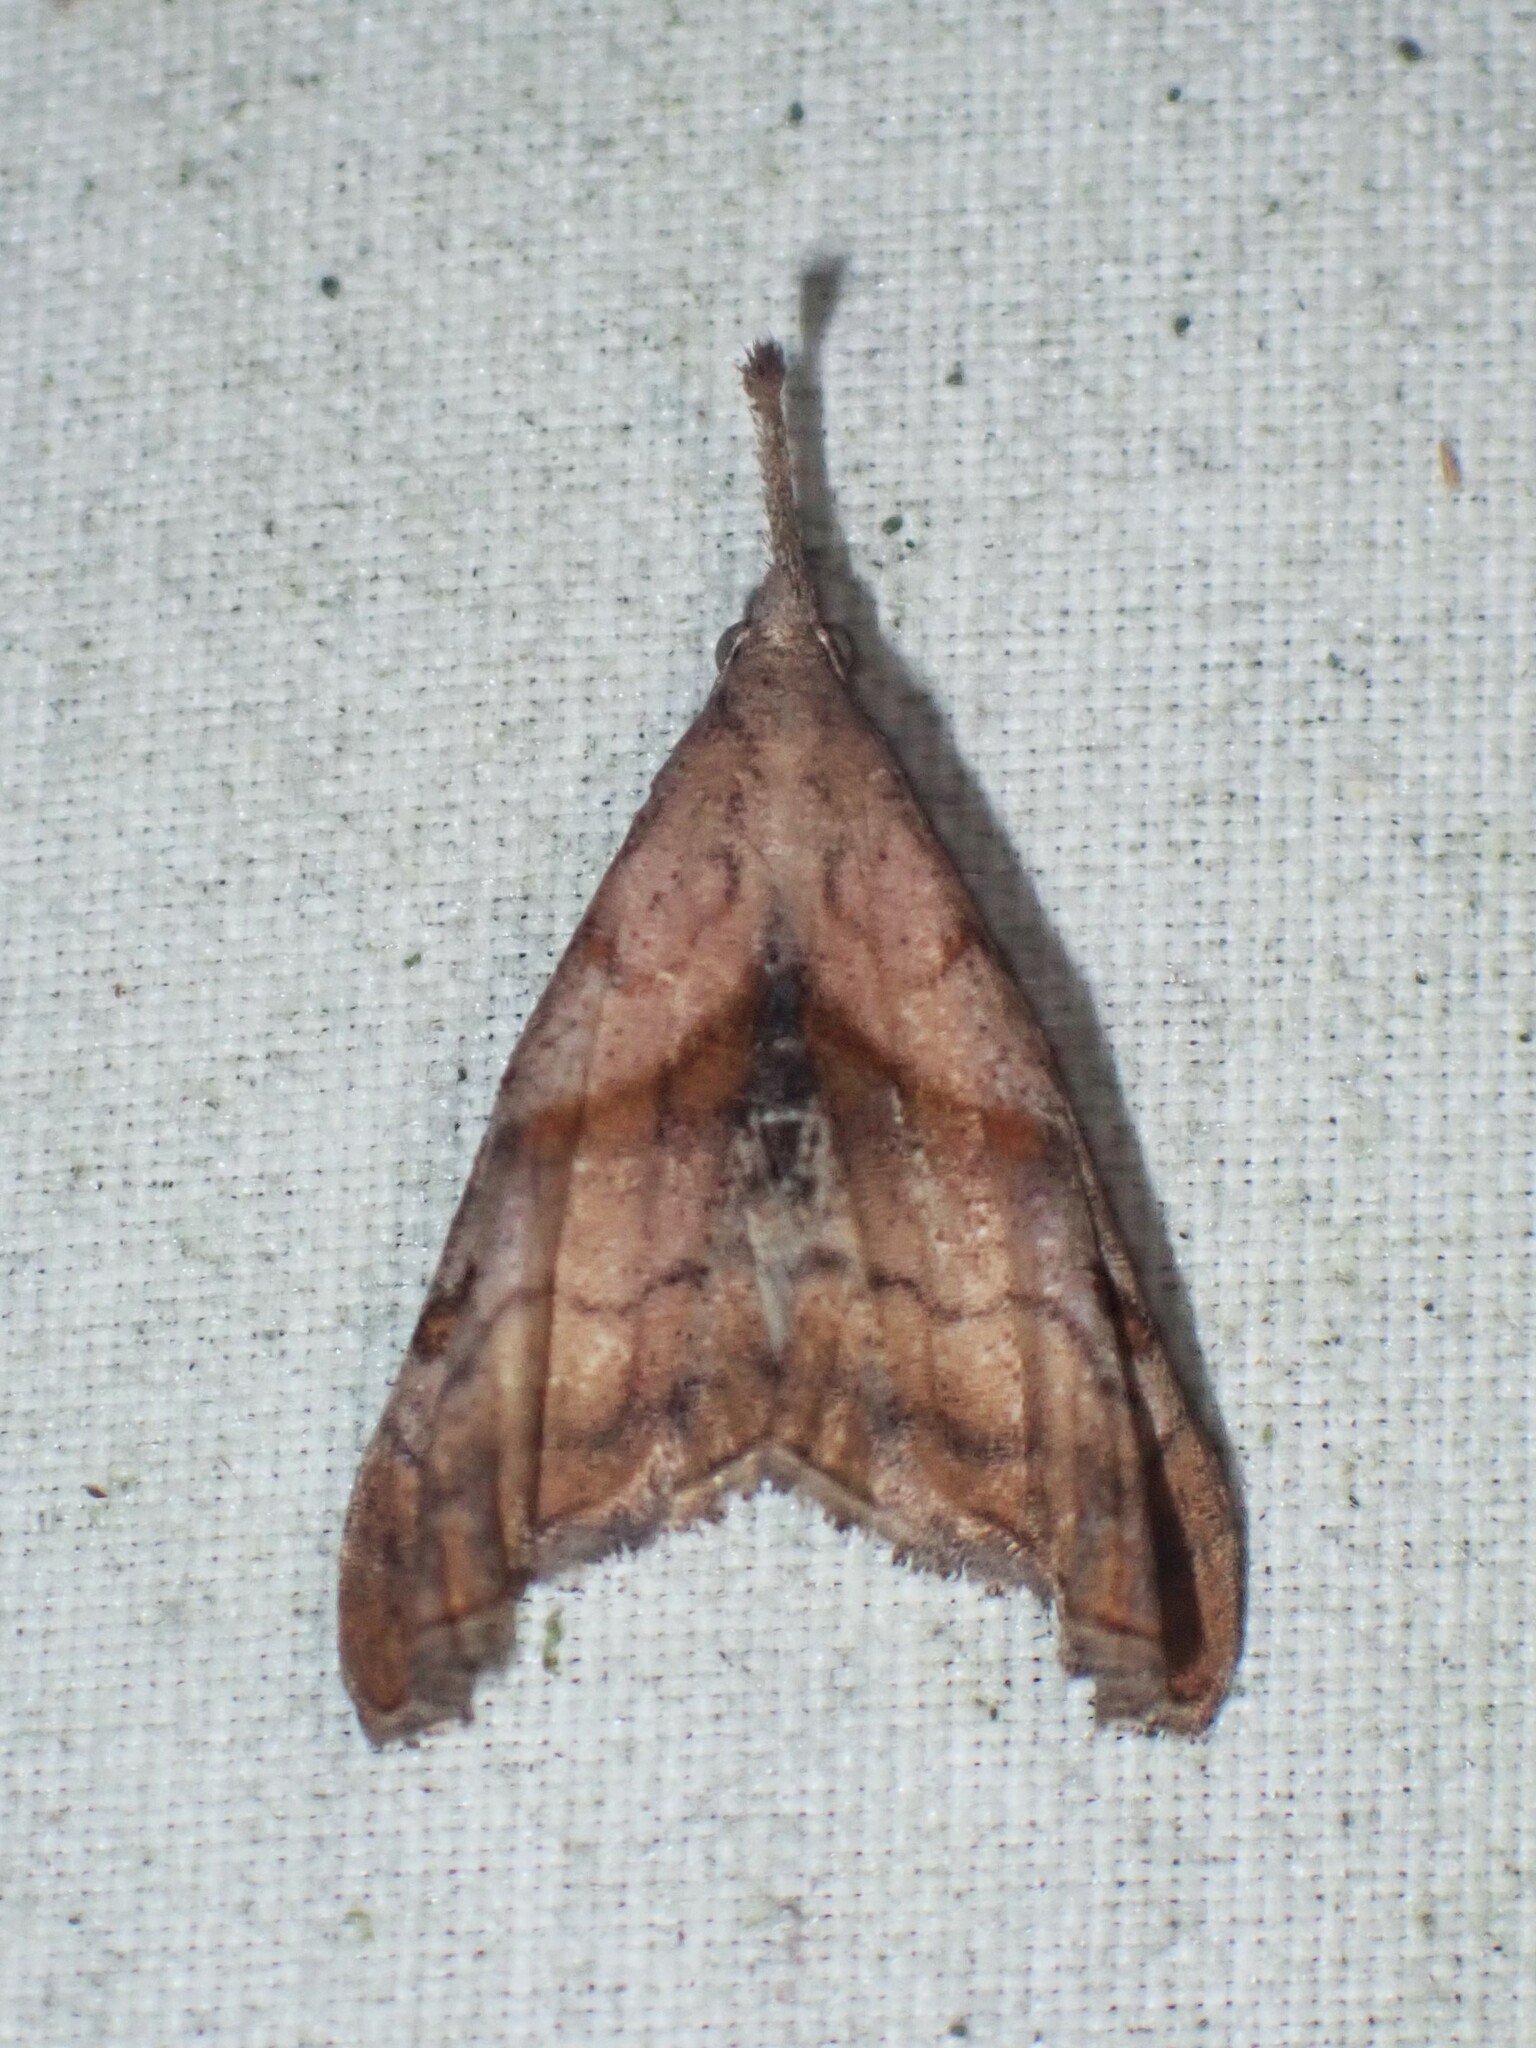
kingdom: Animalia
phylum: Arthropoda
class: Insecta
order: Lepidoptera
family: Erebidae
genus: Palthis
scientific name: Palthis angulalis
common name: Dark-spotted palthis moth
